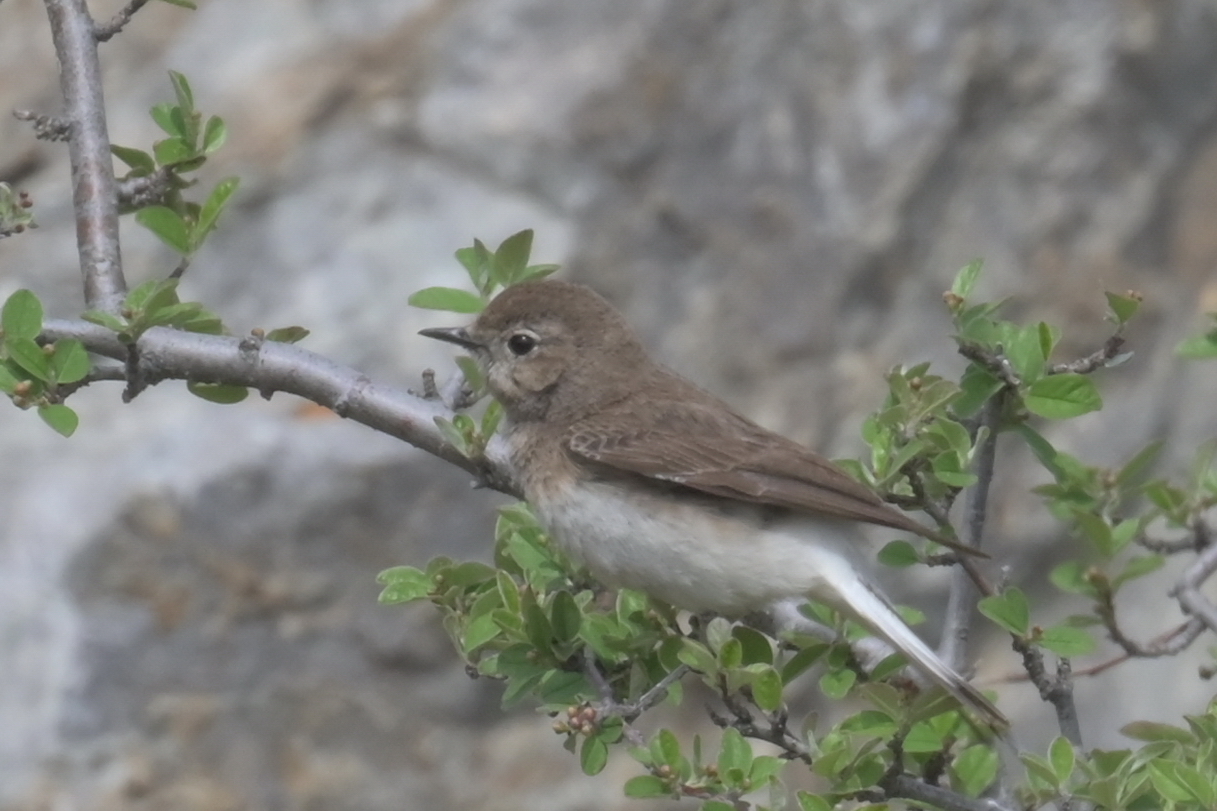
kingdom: Animalia
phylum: Chordata
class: Aves
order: Passeriformes
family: Muscicapidae
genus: Oenanthe
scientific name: Oenanthe pleschanka
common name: Pied wheatear
